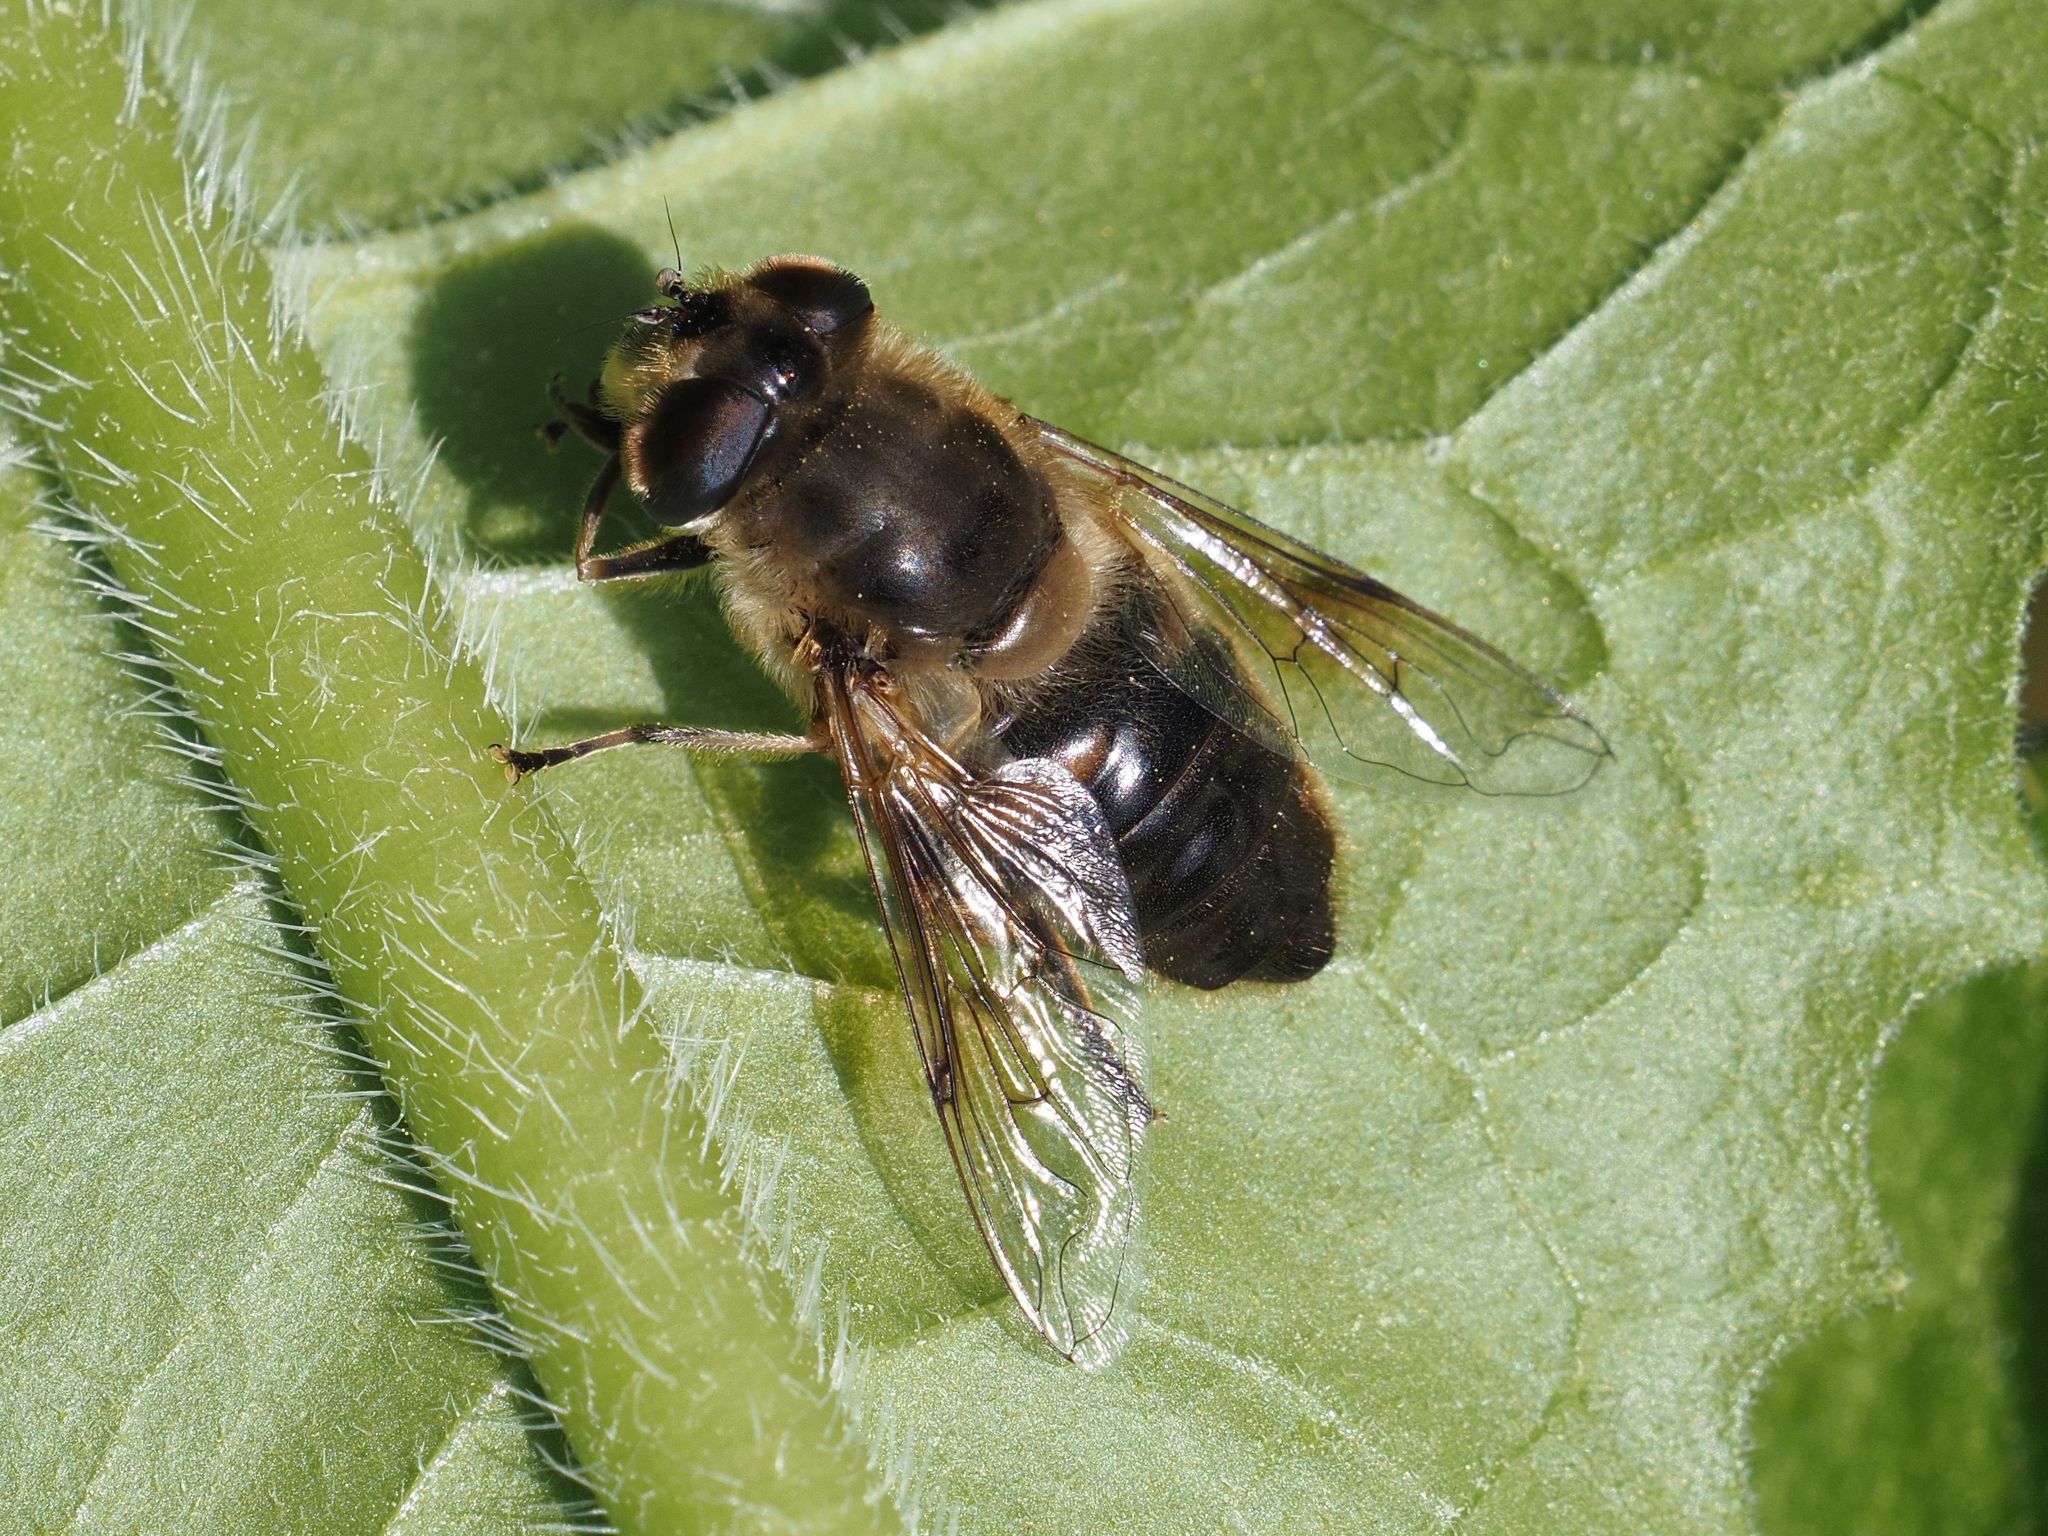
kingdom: Animalia
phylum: Arthropoda
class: Insecta
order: Diptera
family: Syrphidae
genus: Eristalis
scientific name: Eristalis tenax
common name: Drone fly
